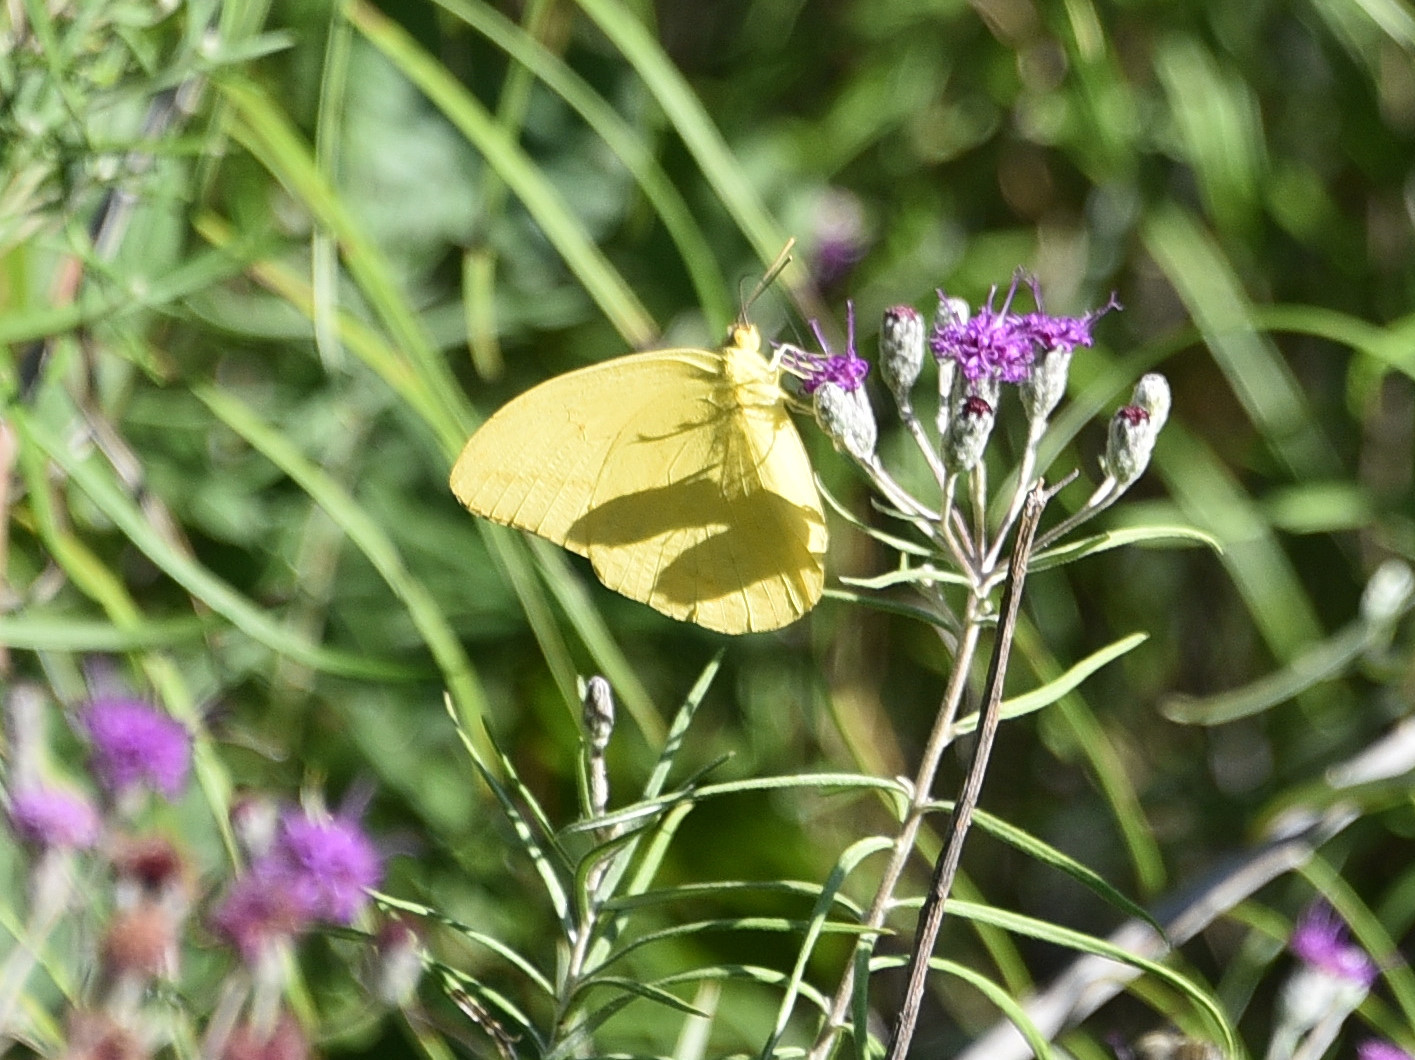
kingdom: Animalia
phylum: Arthropoda
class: Insecta
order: Lepidoptera
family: Pieridae
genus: Phoebis
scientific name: Phoebis agarithe
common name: Large orange sulphur
